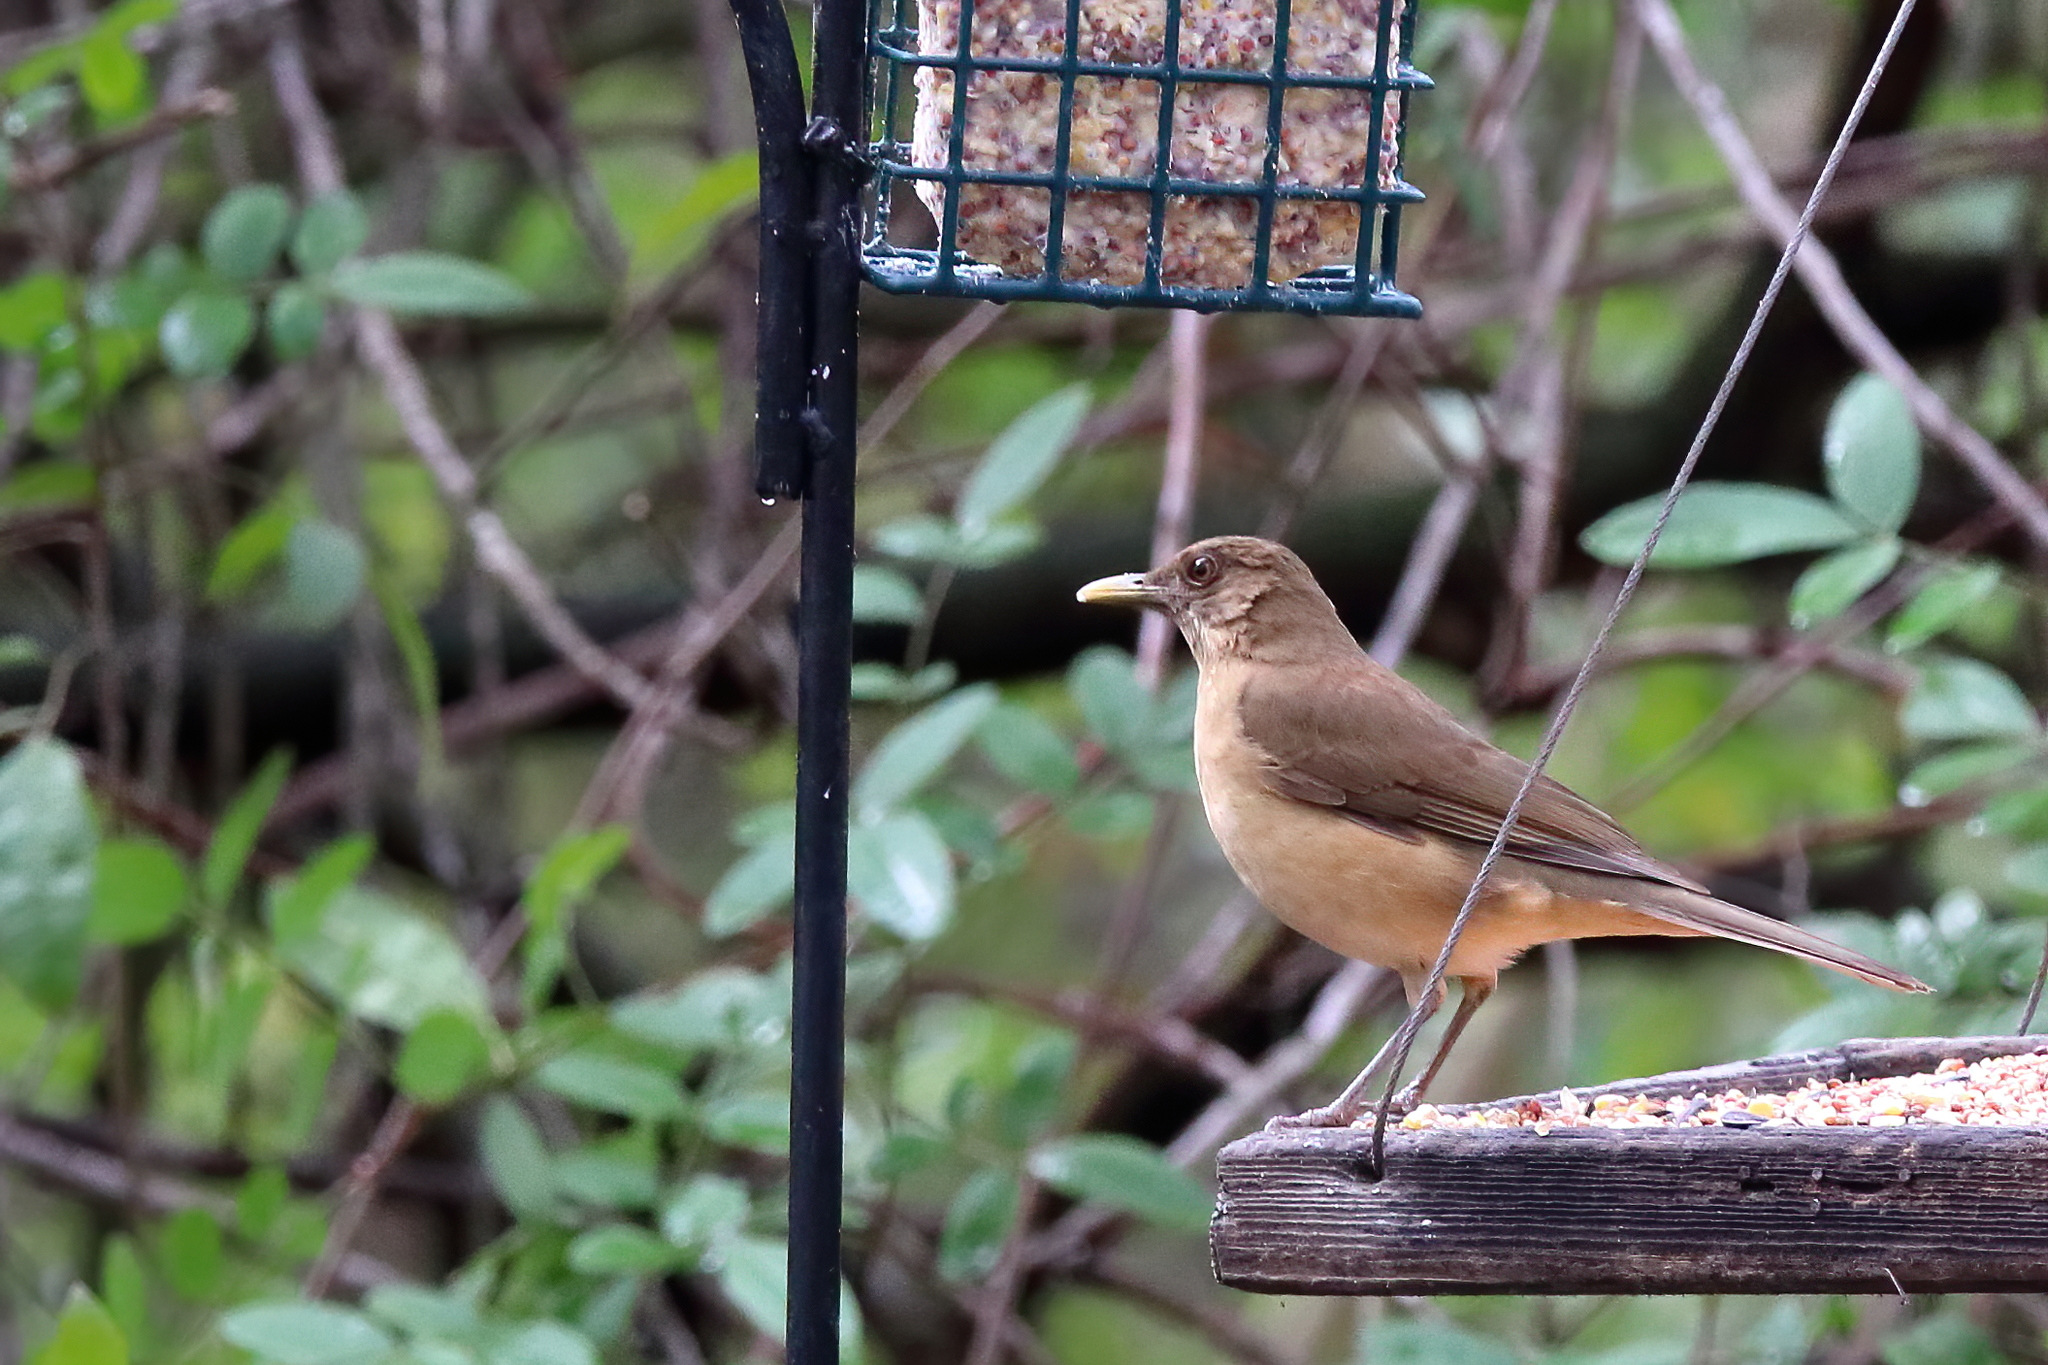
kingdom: Animalia
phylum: Chordata
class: Aves
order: Passeriformes
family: Turdidae
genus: Turdus
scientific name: Turdus grayi
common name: Clay-colored thrush
